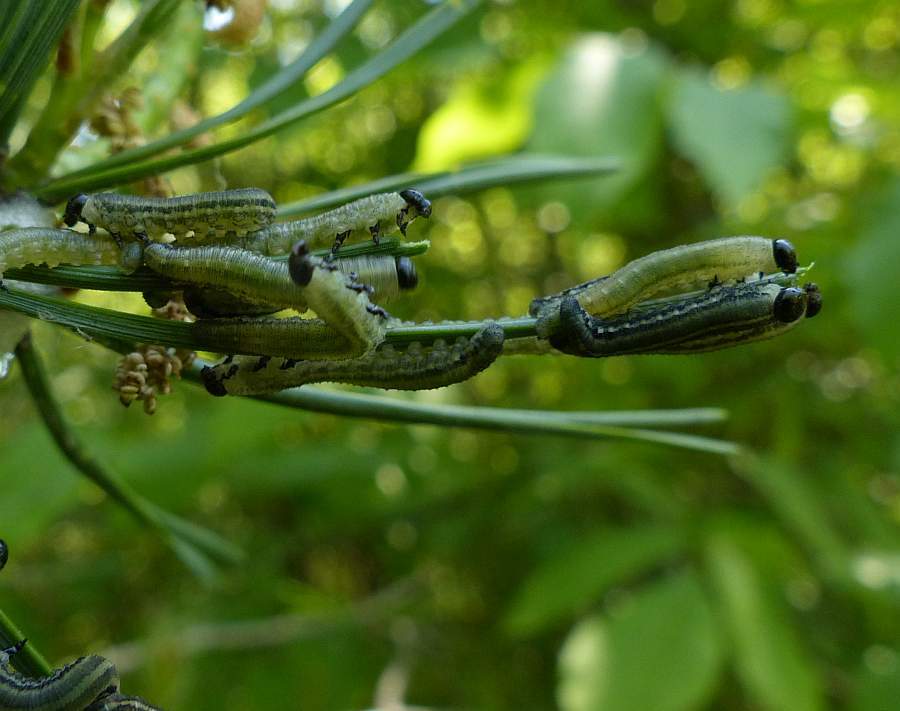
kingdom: Animalia
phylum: Arthropoda
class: Insecta
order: Hymenoptera
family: Diprionidae
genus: Neodiprion
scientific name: Neodiprion sertifer
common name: European pine sawfly
